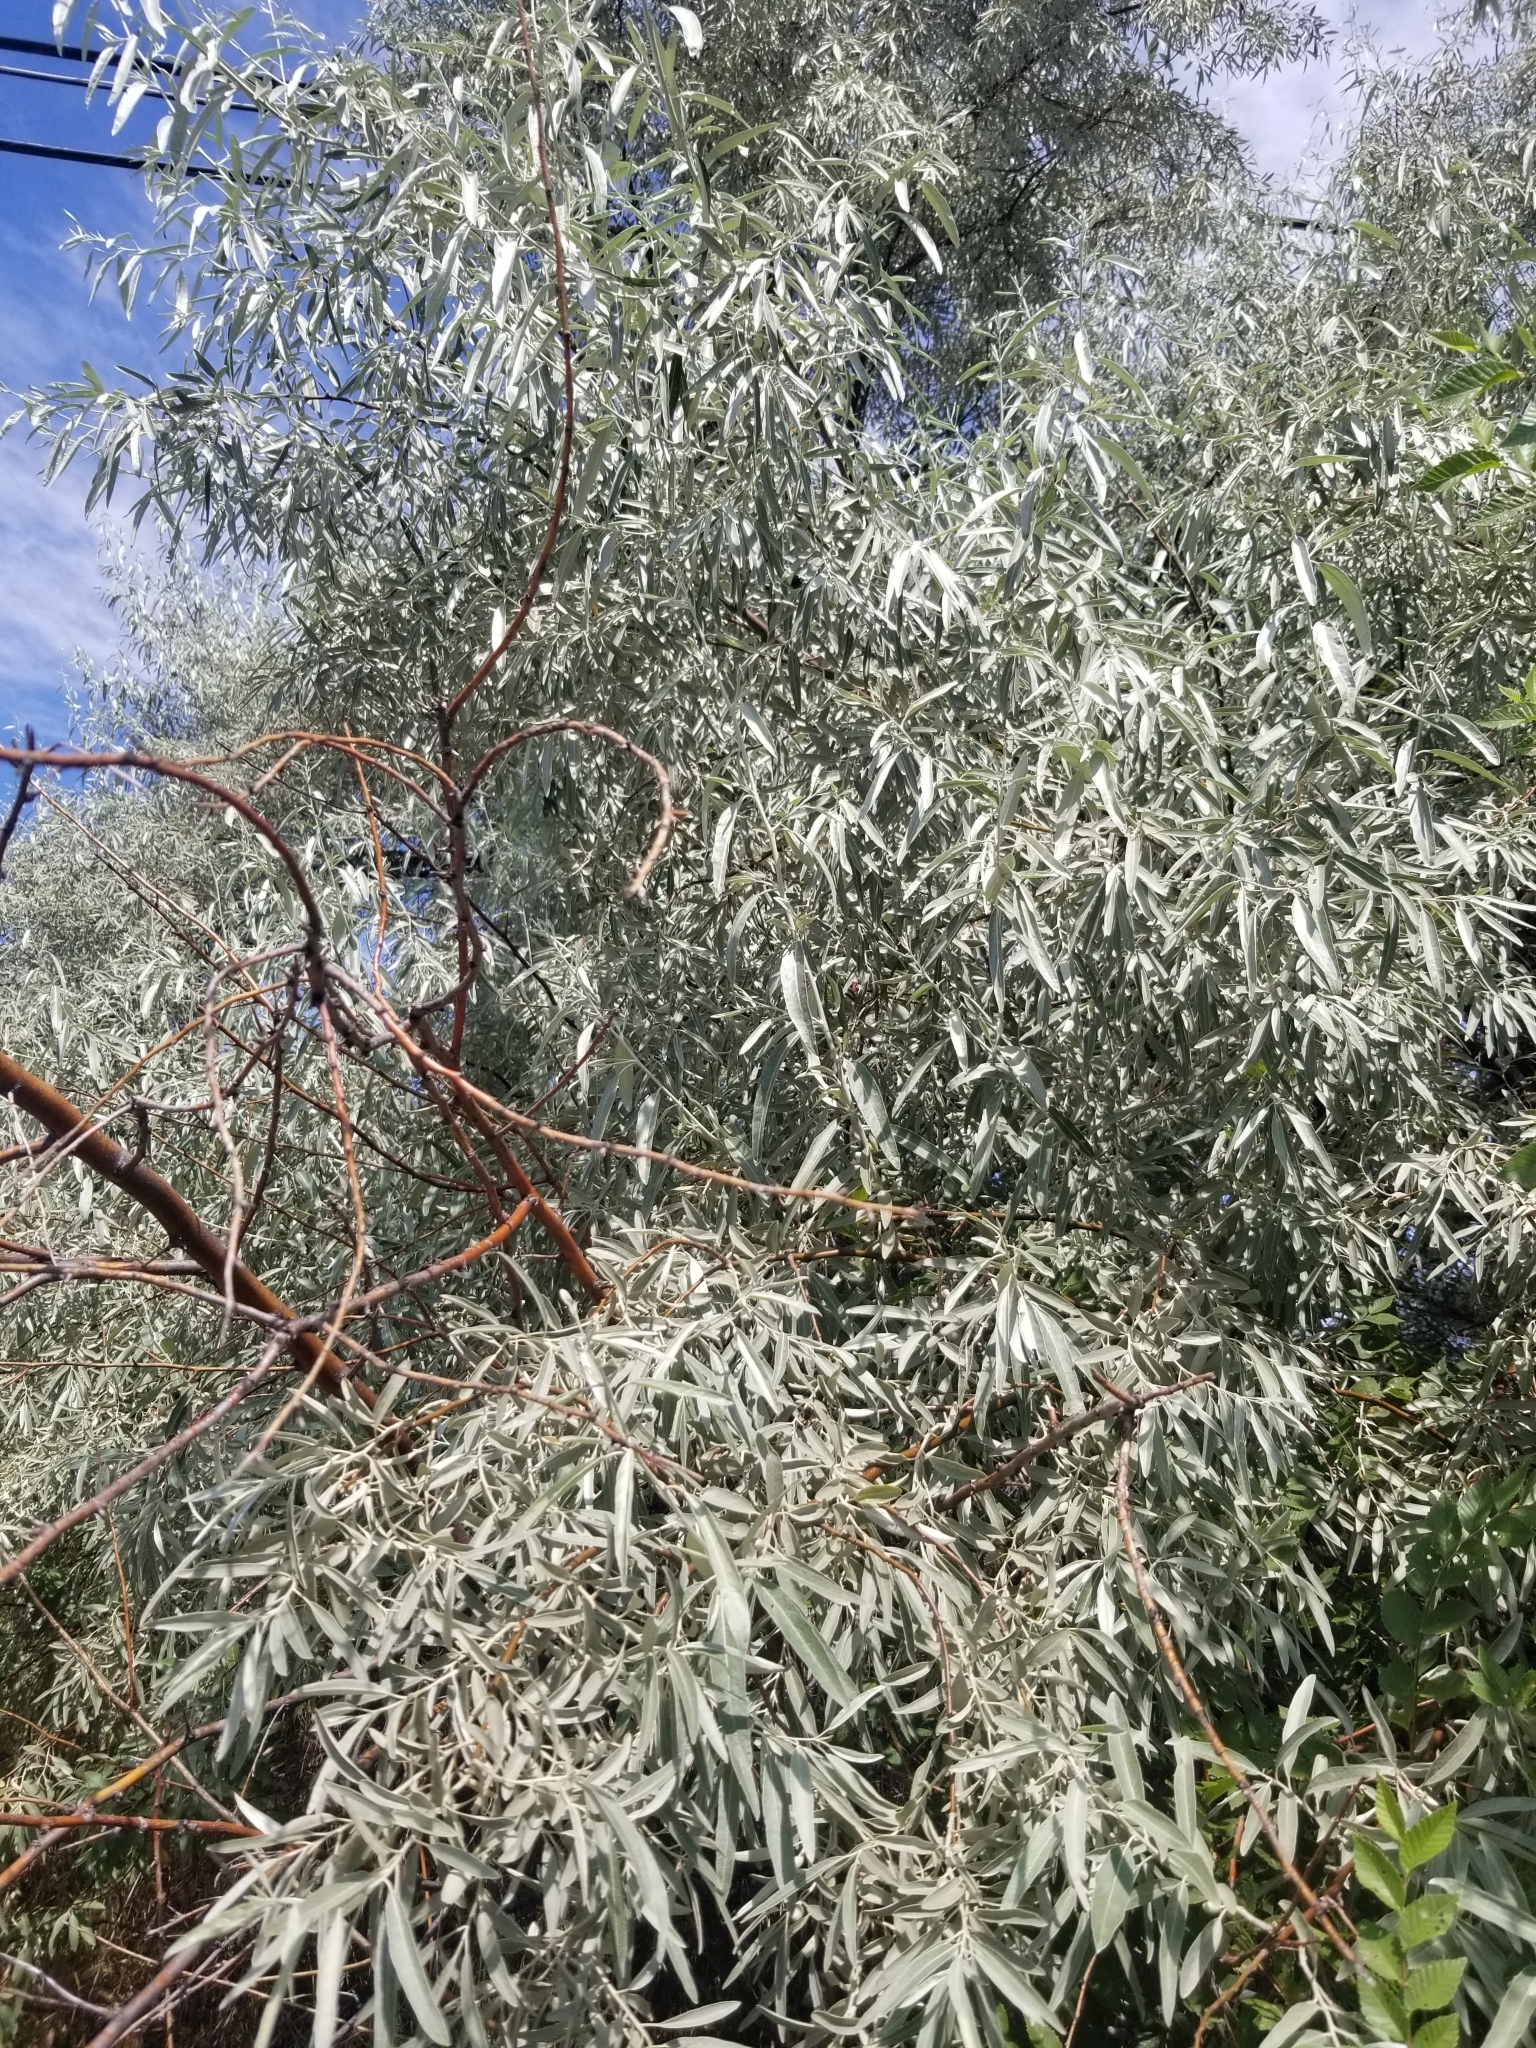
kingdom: Plantae
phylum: Tracheophyta
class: Magnoliopsida
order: Rosales
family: Elaeagnaceae
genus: Elaeagnus
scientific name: Elaeagnus angustifolia
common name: Russian olive
